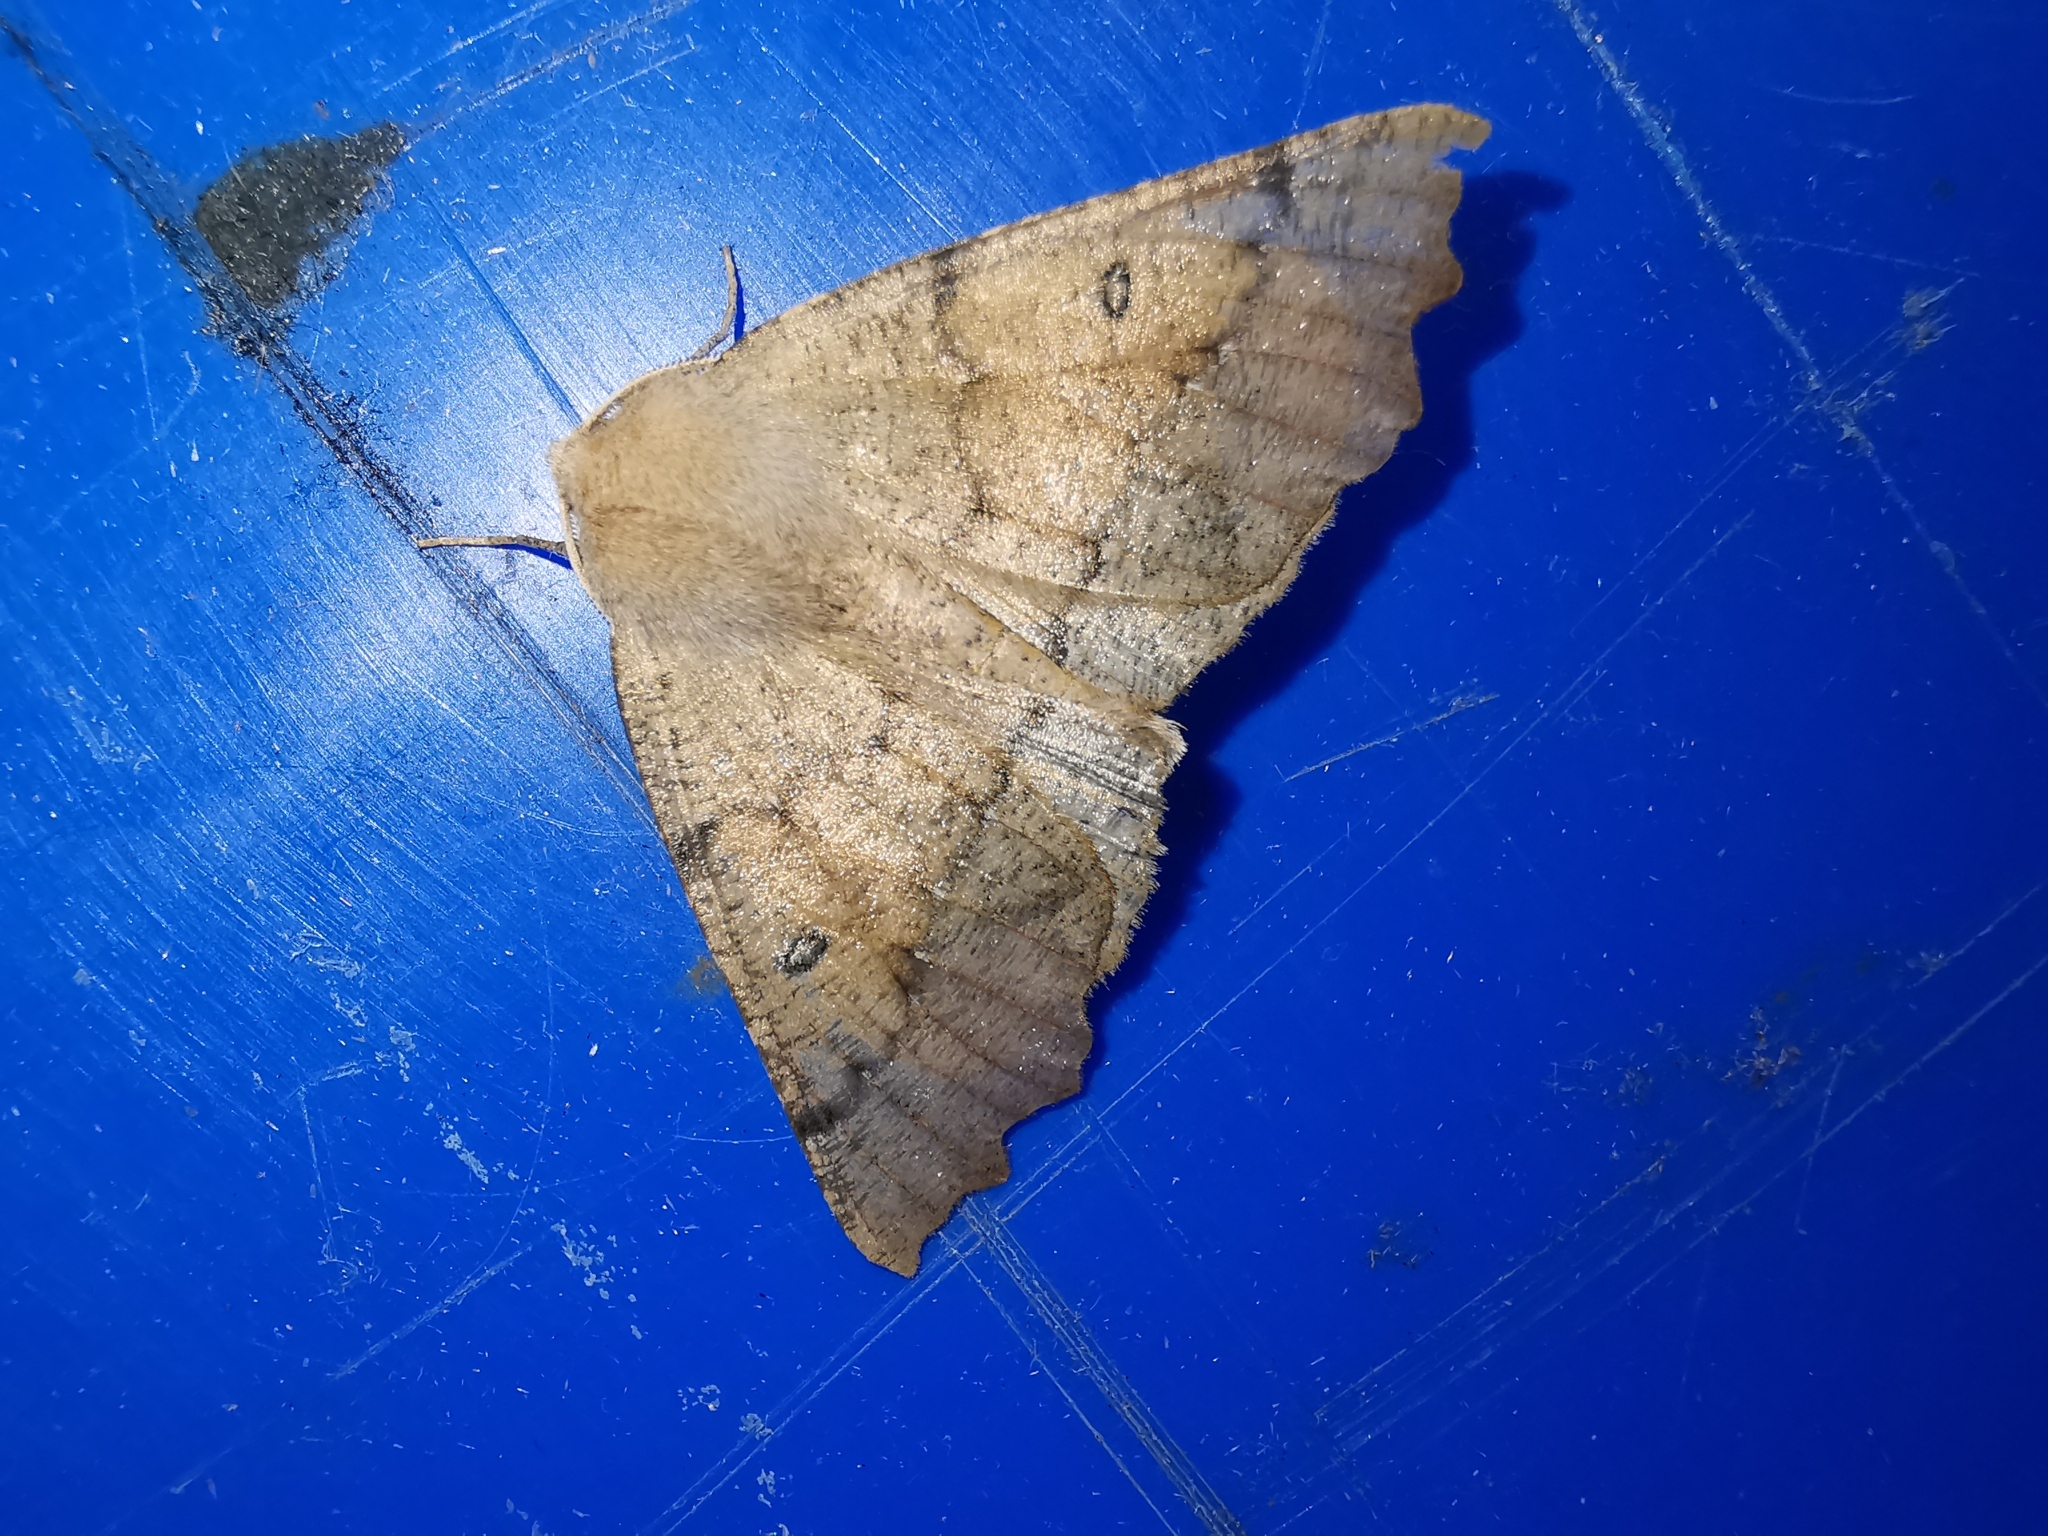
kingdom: Animalia
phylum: Arthropoda
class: Insecta
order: Lepidoptera
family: Geometridae
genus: Odontopera
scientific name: Odontopera bidentata
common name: Scalloped hazel
